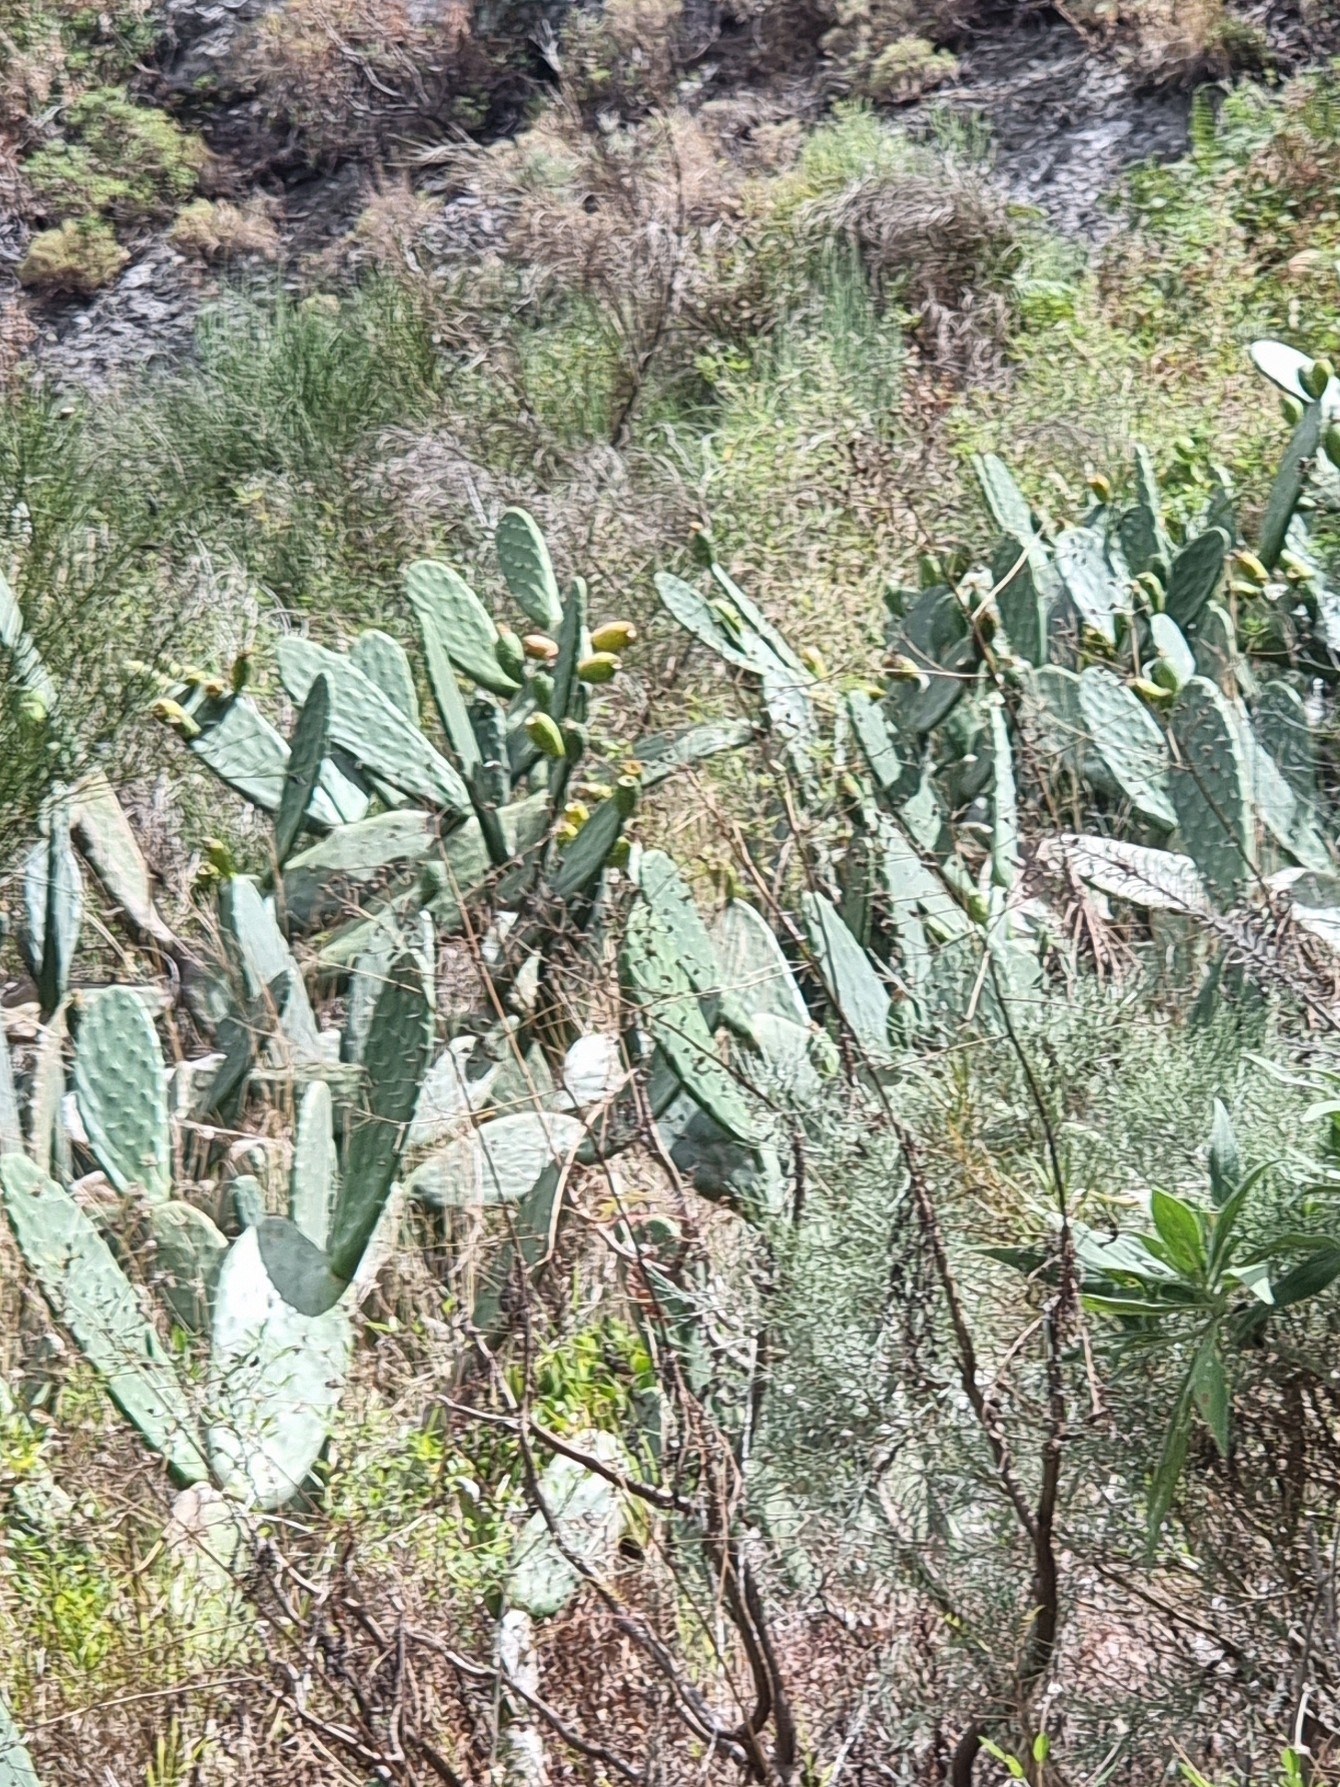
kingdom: Plantae
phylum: Tracheophyta
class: Magnoliopsida
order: Caryophyllales
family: Cactaceae
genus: Opuntia
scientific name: Opuntia ficus-indica
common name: Barbary fig
